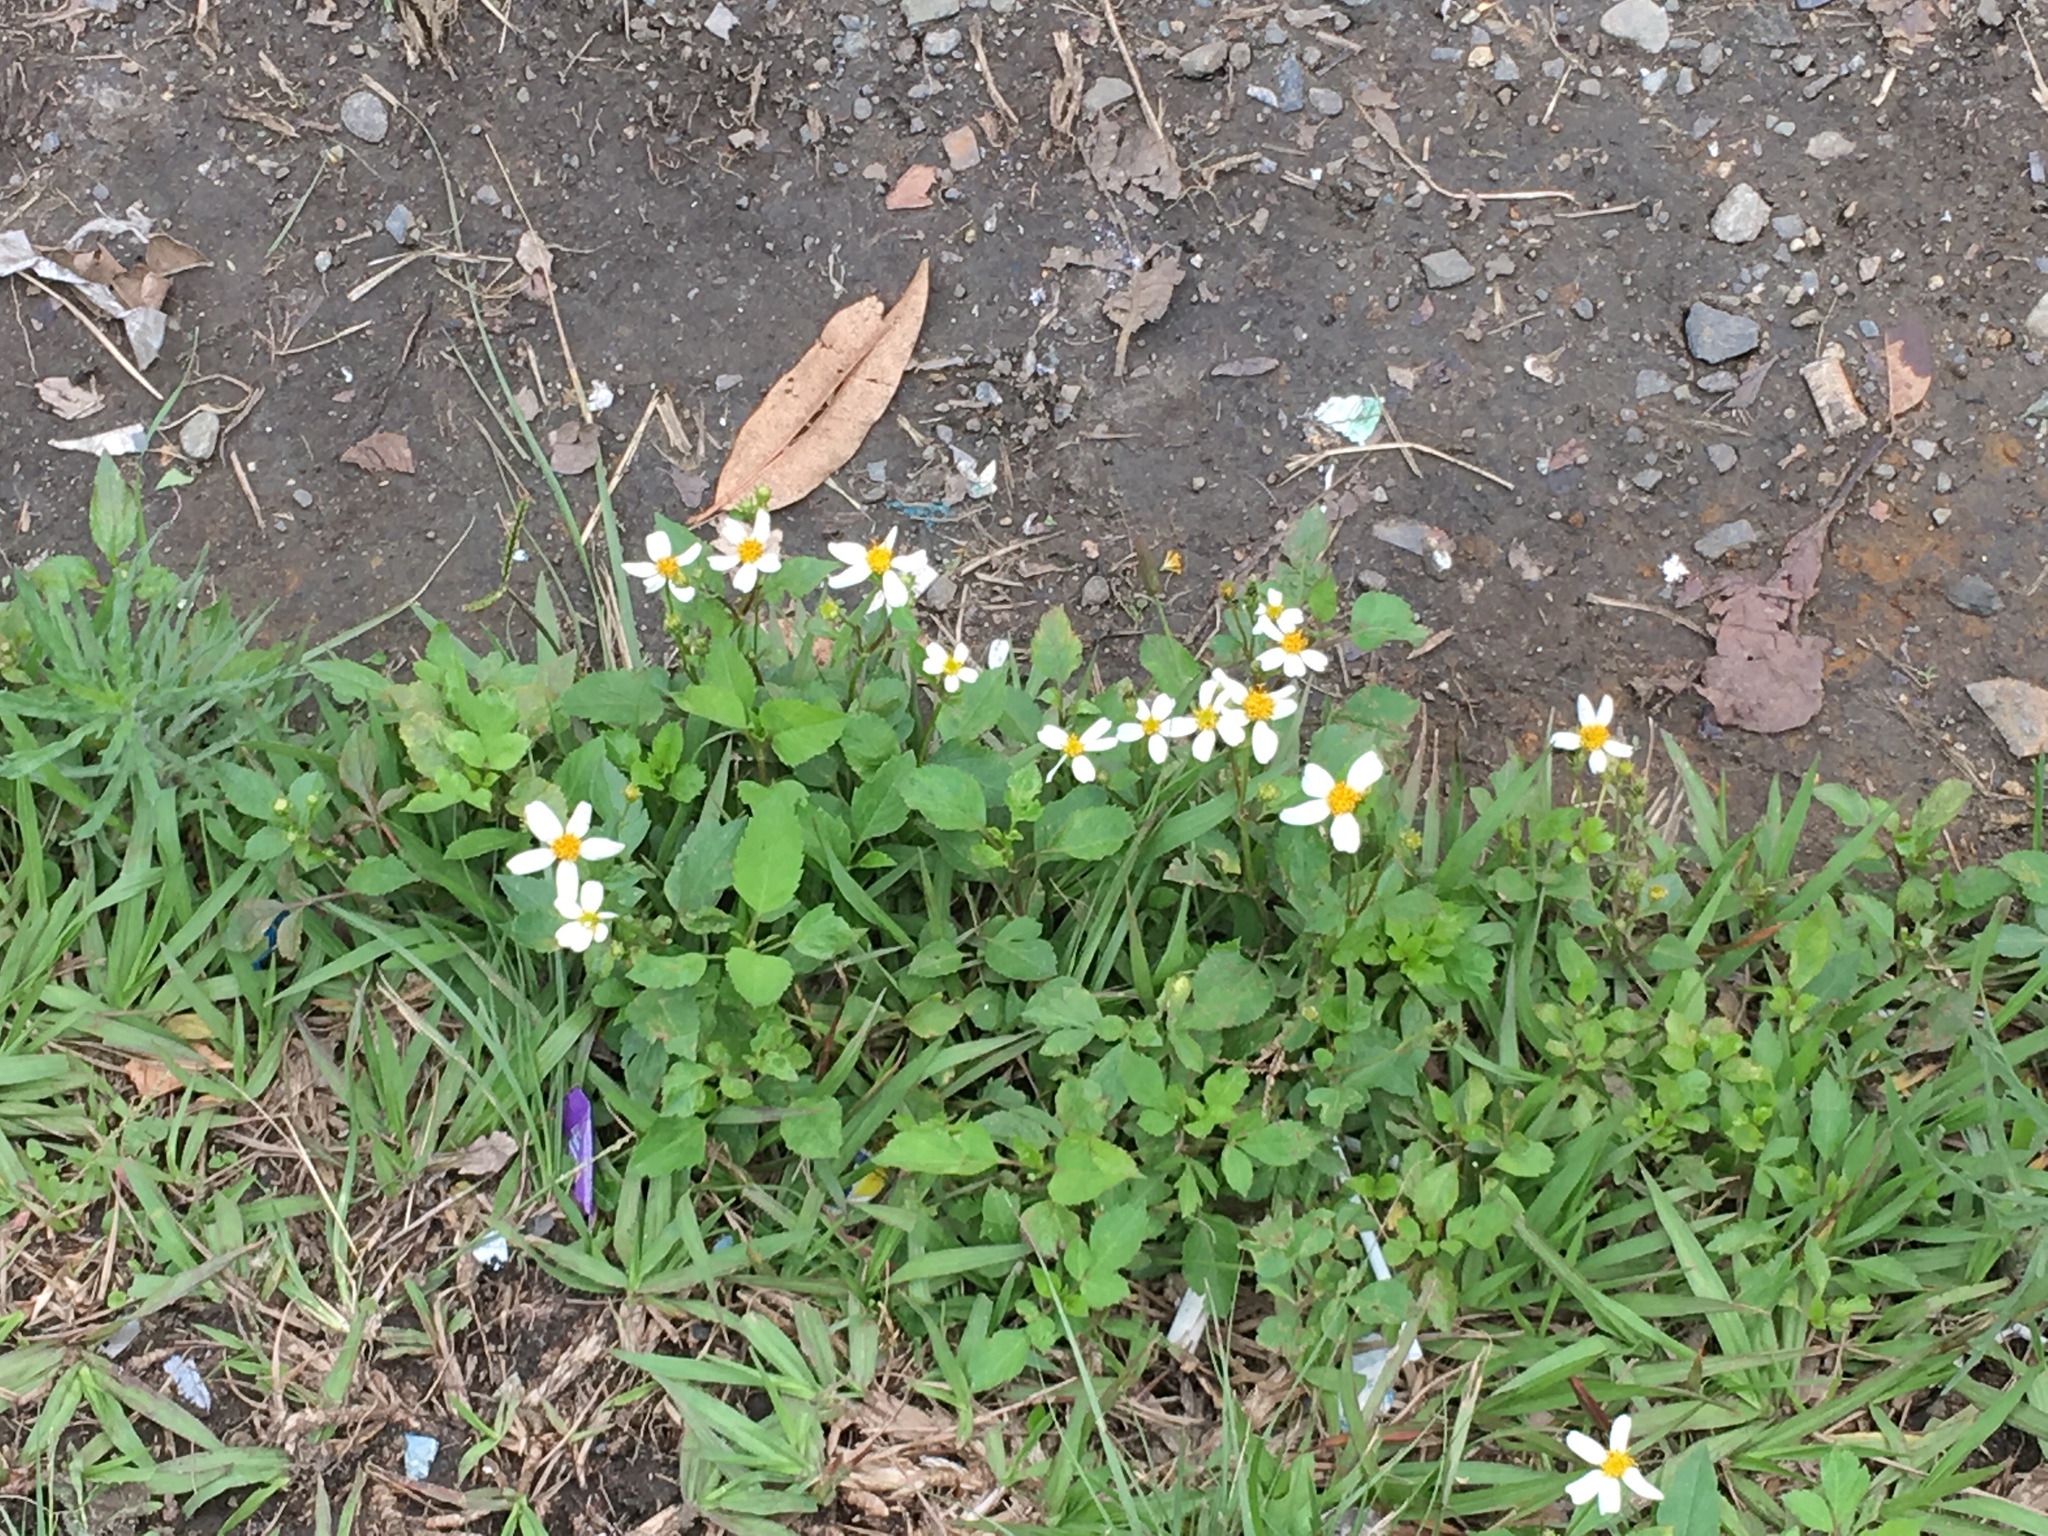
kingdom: Plantae
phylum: Tracheophyta
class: Magnoliopsida
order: Asterales
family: Asteraceae
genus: Bidens
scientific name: Bidens alba
